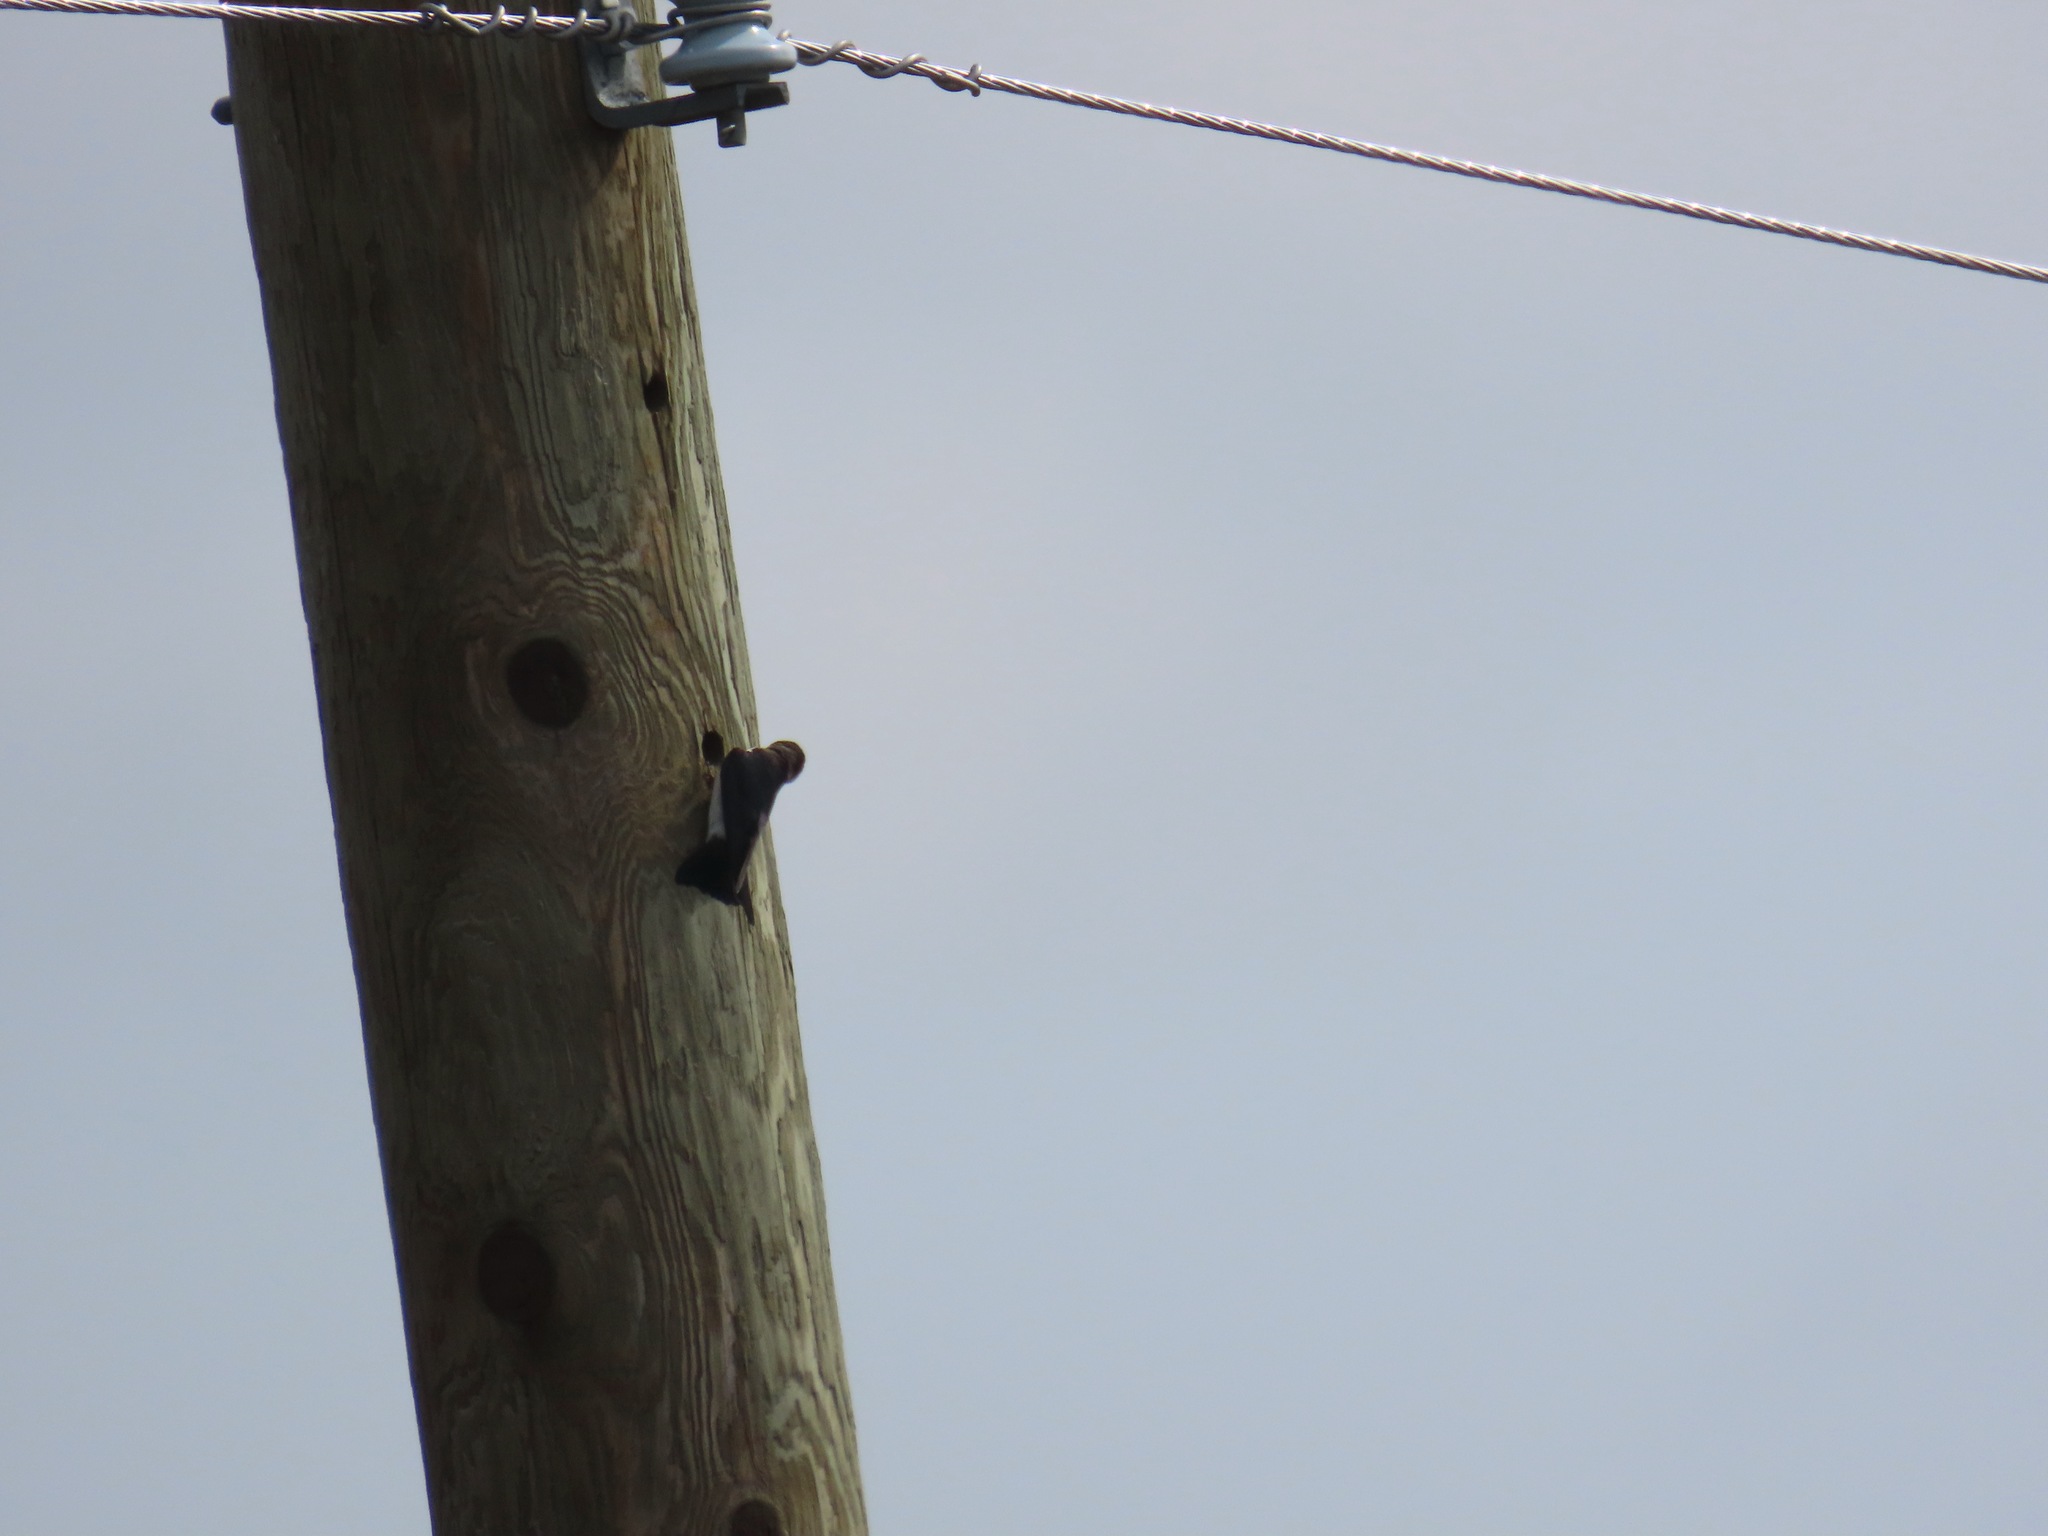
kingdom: Animalia
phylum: Chordata
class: Aves
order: Passeriformes
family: Hirundinidae
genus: Tachycineta
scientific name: Tachycineta thalassina
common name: Violet-green swallow
